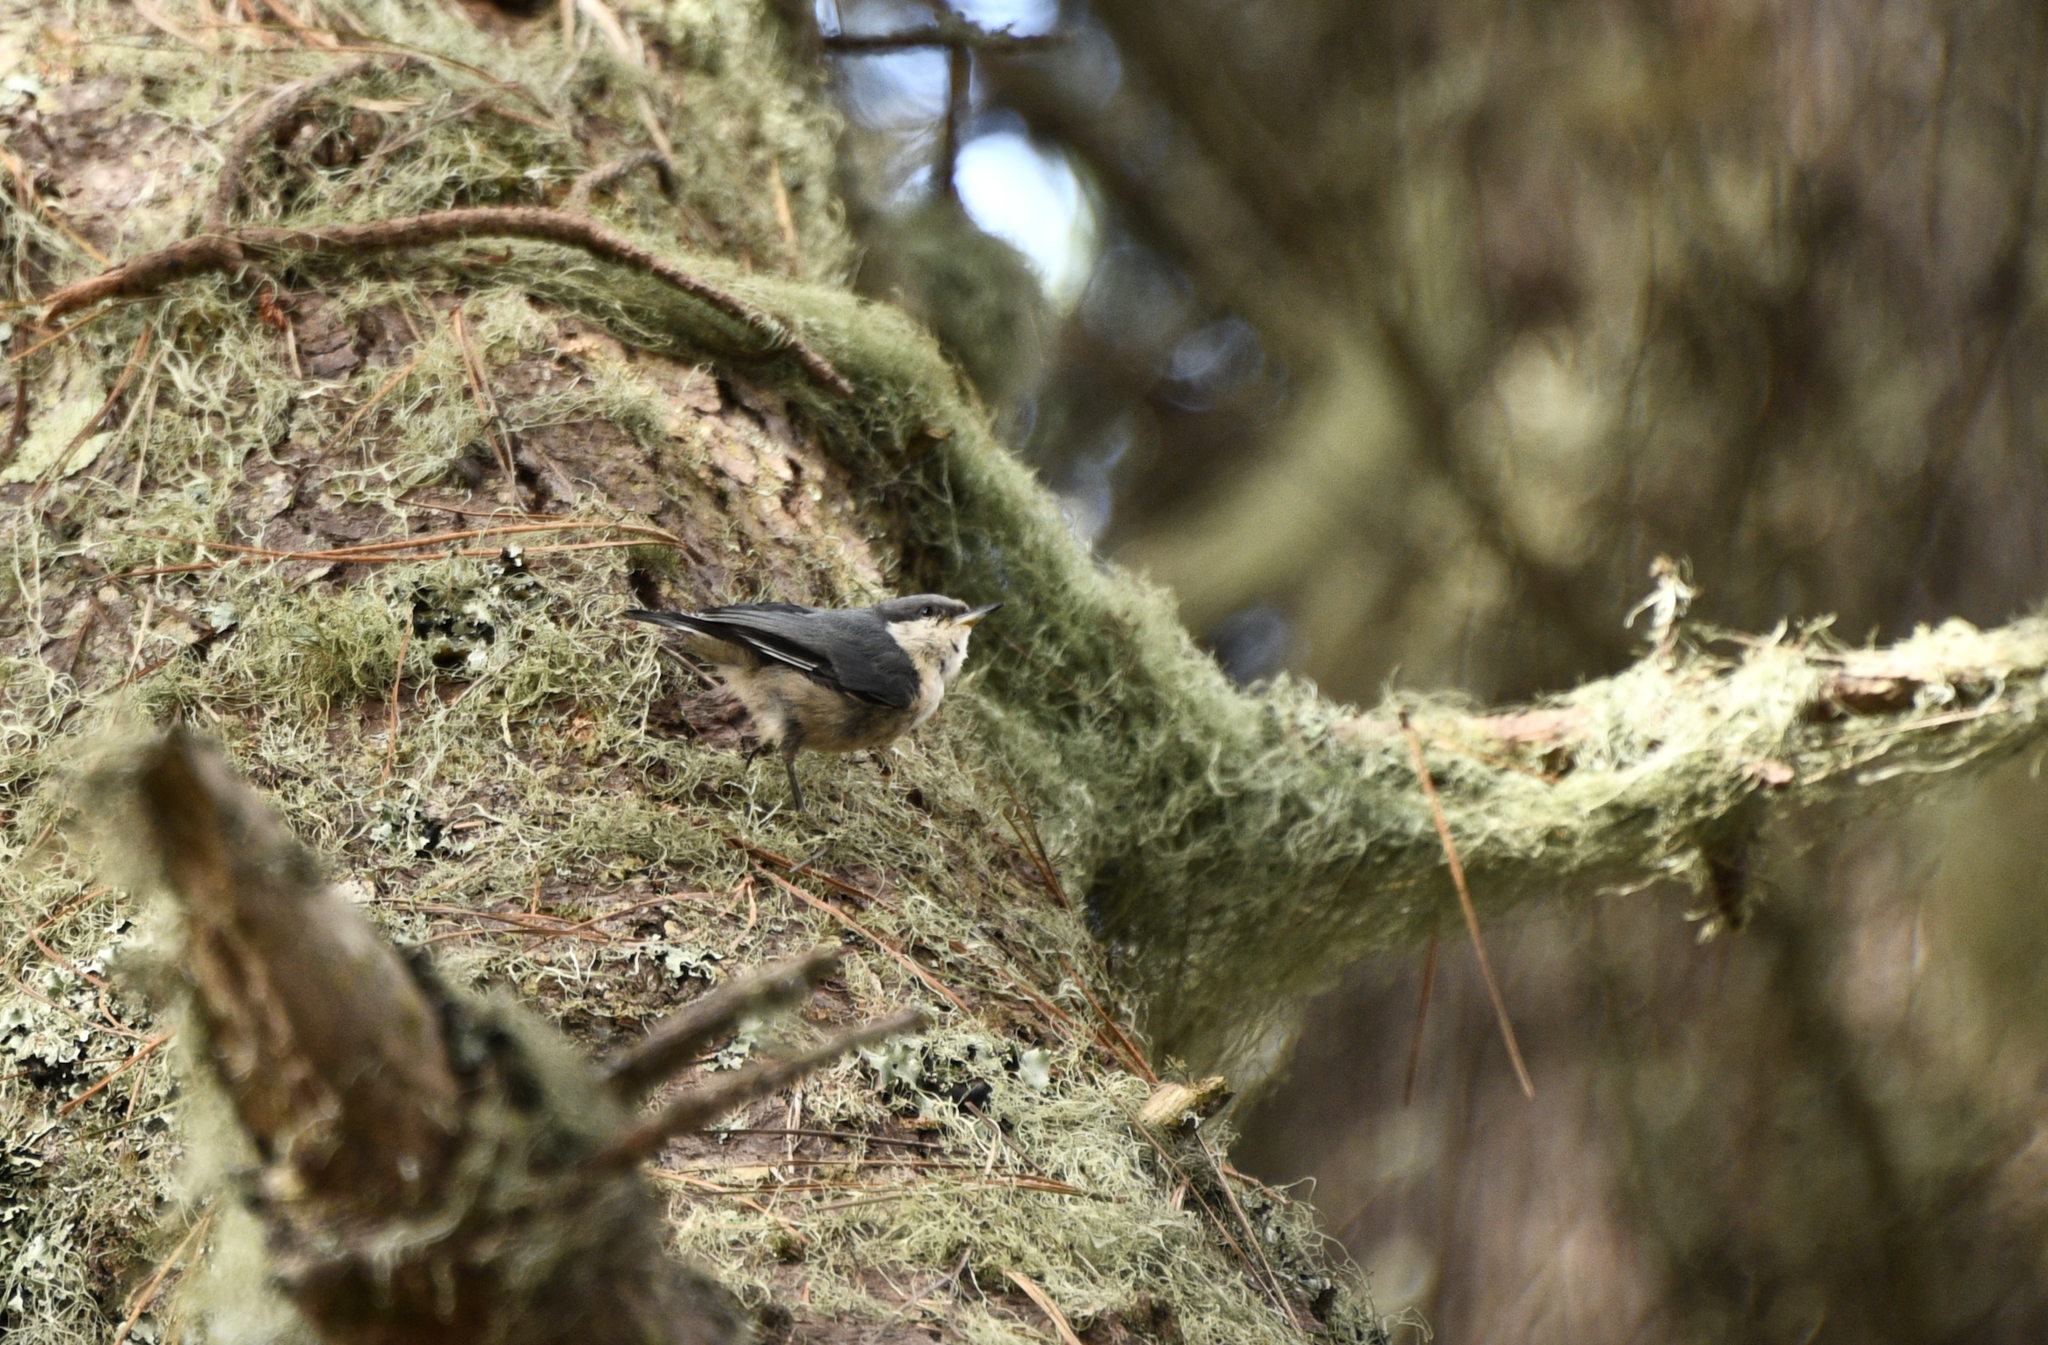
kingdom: Animalia
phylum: Chordata
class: Aves
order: Passeriformes
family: Sittidae
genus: Sitta
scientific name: Sitta pygmaea
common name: Pygmy nuthatch
